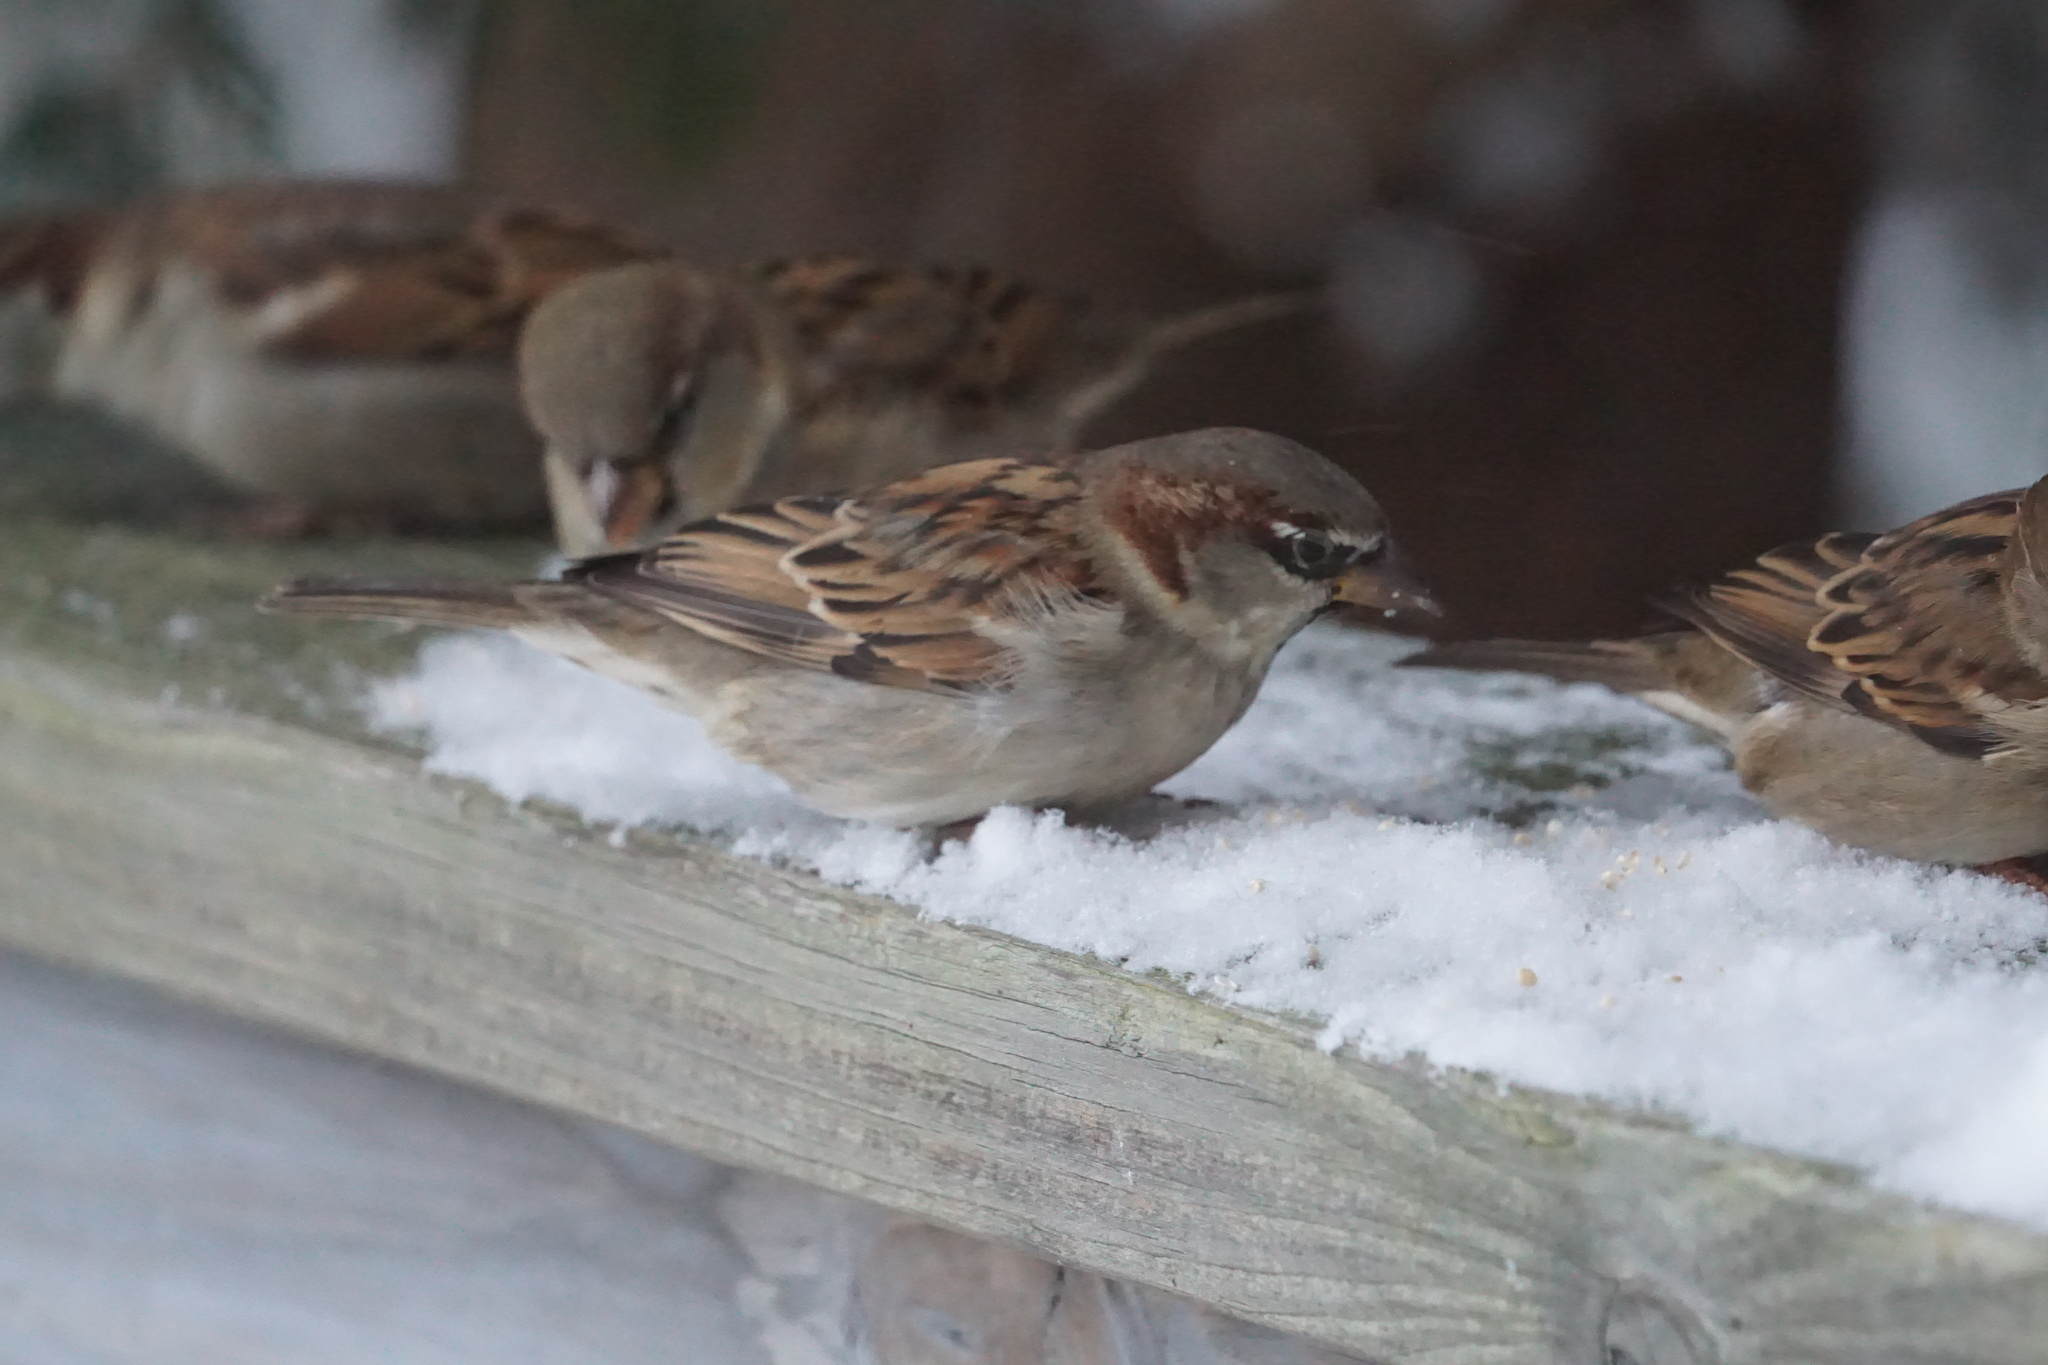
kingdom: Animalia
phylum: Chordata
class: Aves
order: Passeriformes
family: Passeridae
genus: Passer
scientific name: Passer domesticus
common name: House sparrow
